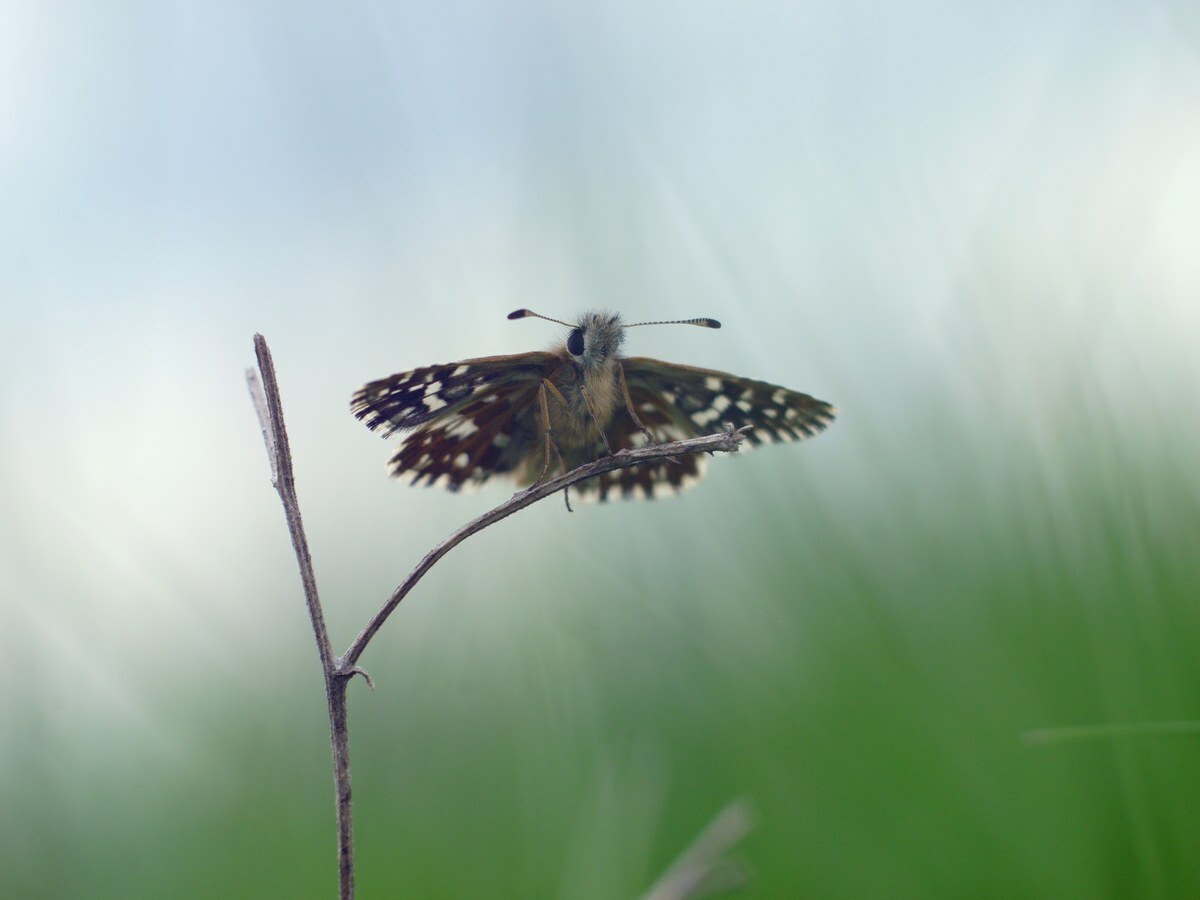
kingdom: Animalia
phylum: Arthropoda
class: Insecta
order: Lepidoptera
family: Hesperiidae
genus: Pyrgus
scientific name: Pyrgus malvae
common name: Grizzled skipper
